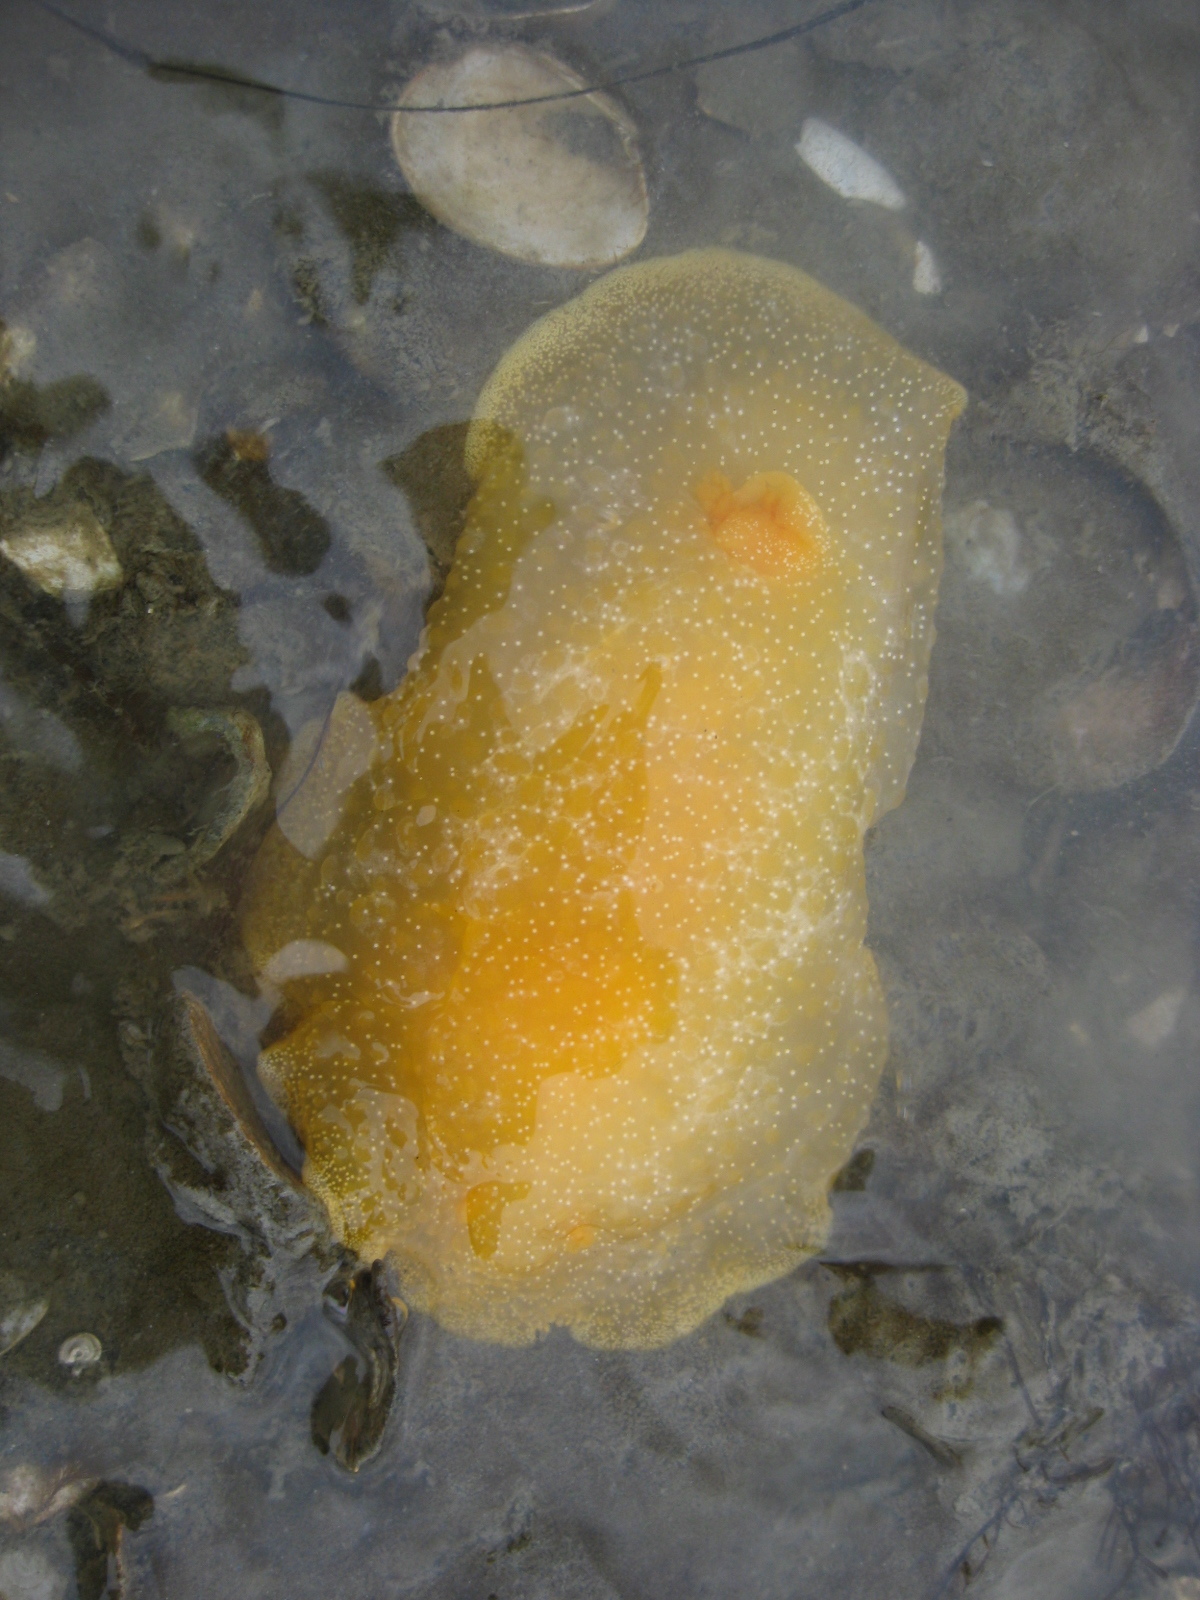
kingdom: Animalia
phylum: Mollusca
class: Gastropoda
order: Nudibranchia
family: Dendrodorididae
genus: Dendrodoris
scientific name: Dendrodoris citrina
